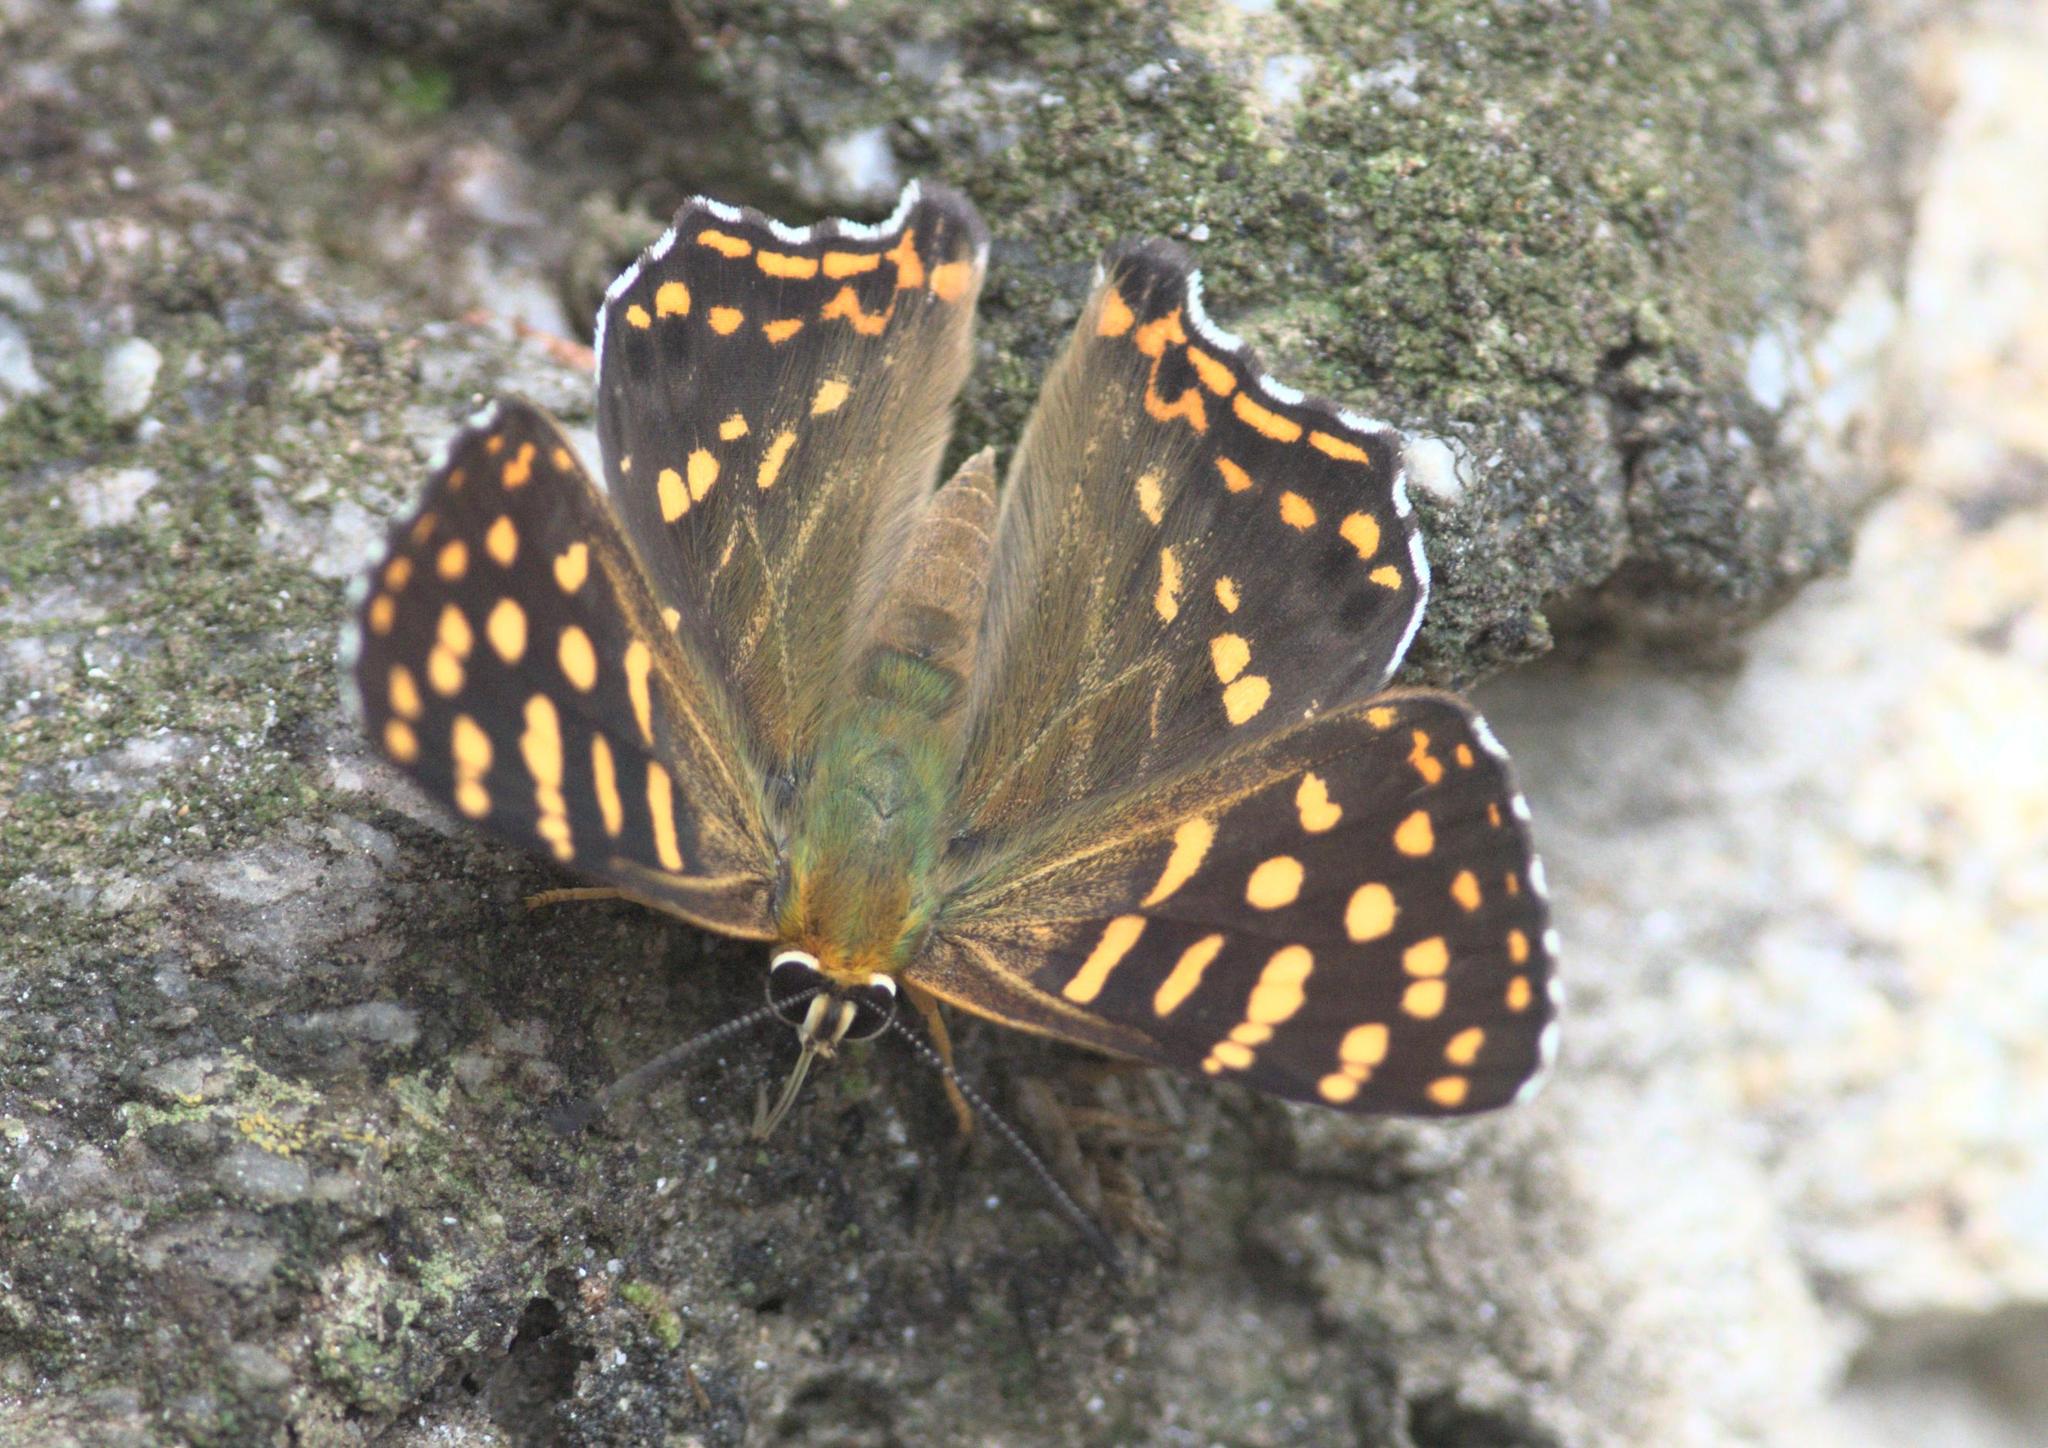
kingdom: Animalia
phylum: Arthropoda
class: Insecta
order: Lepidoptera
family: Lycaenidae
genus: Dodona
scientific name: Dodona durga
